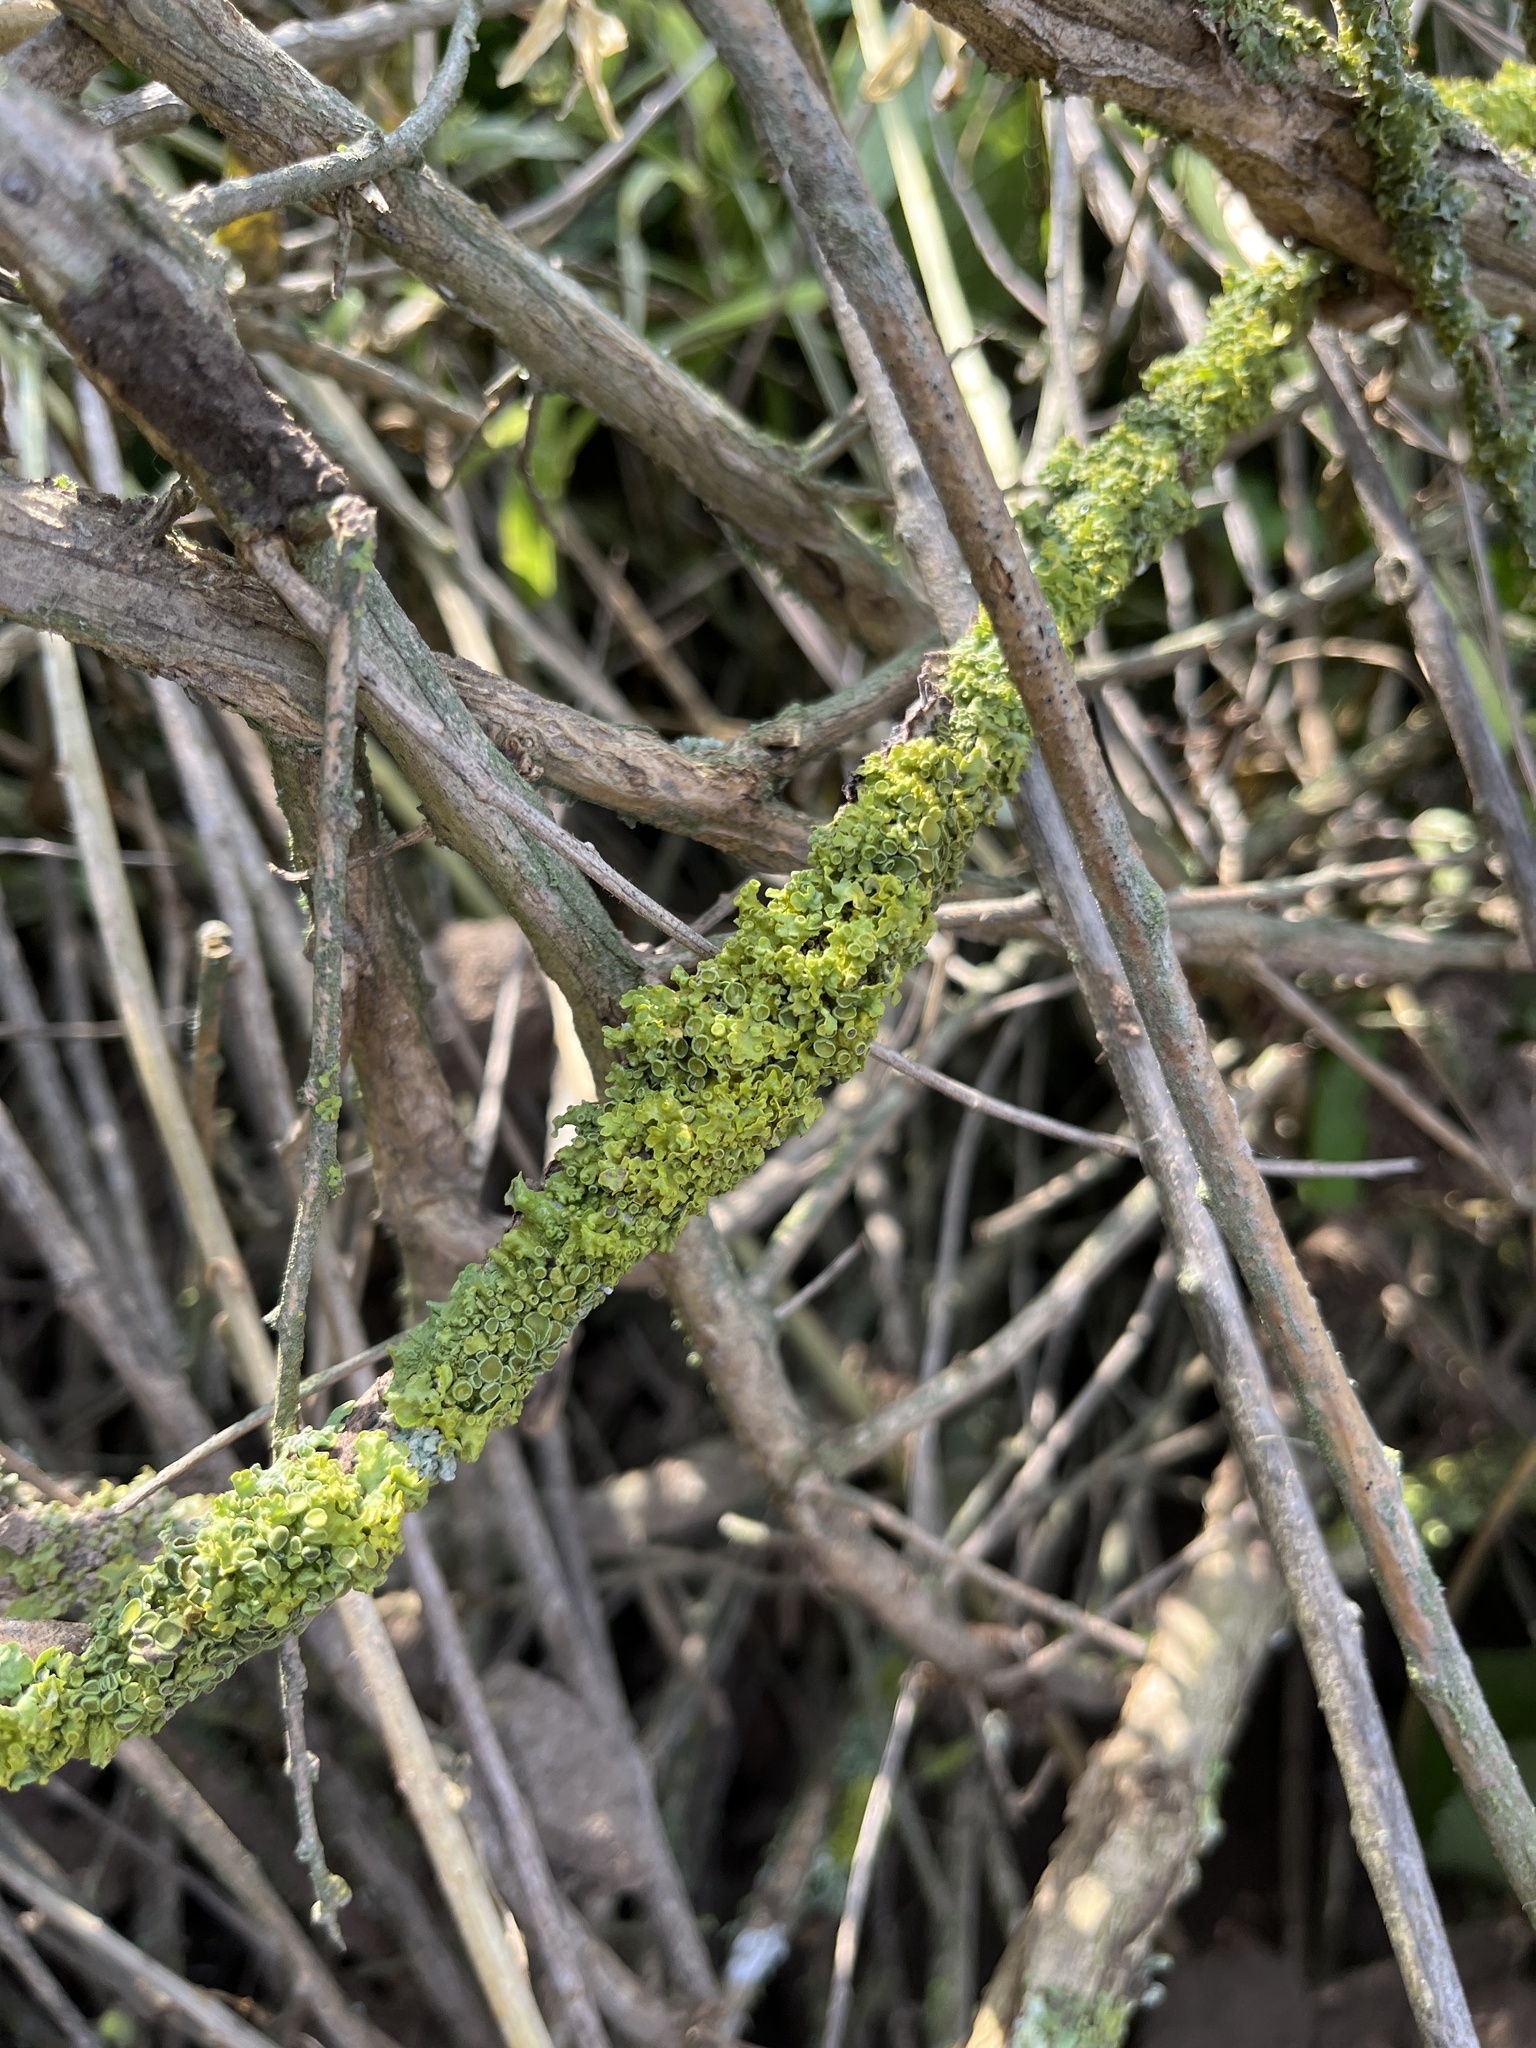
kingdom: Fungi
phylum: Ascomycota
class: Lecanoromycetes
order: Teloschistales
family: Teloschistaceae
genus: Xanthoria
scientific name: Xanthoria parietina
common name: Common orange lichen
